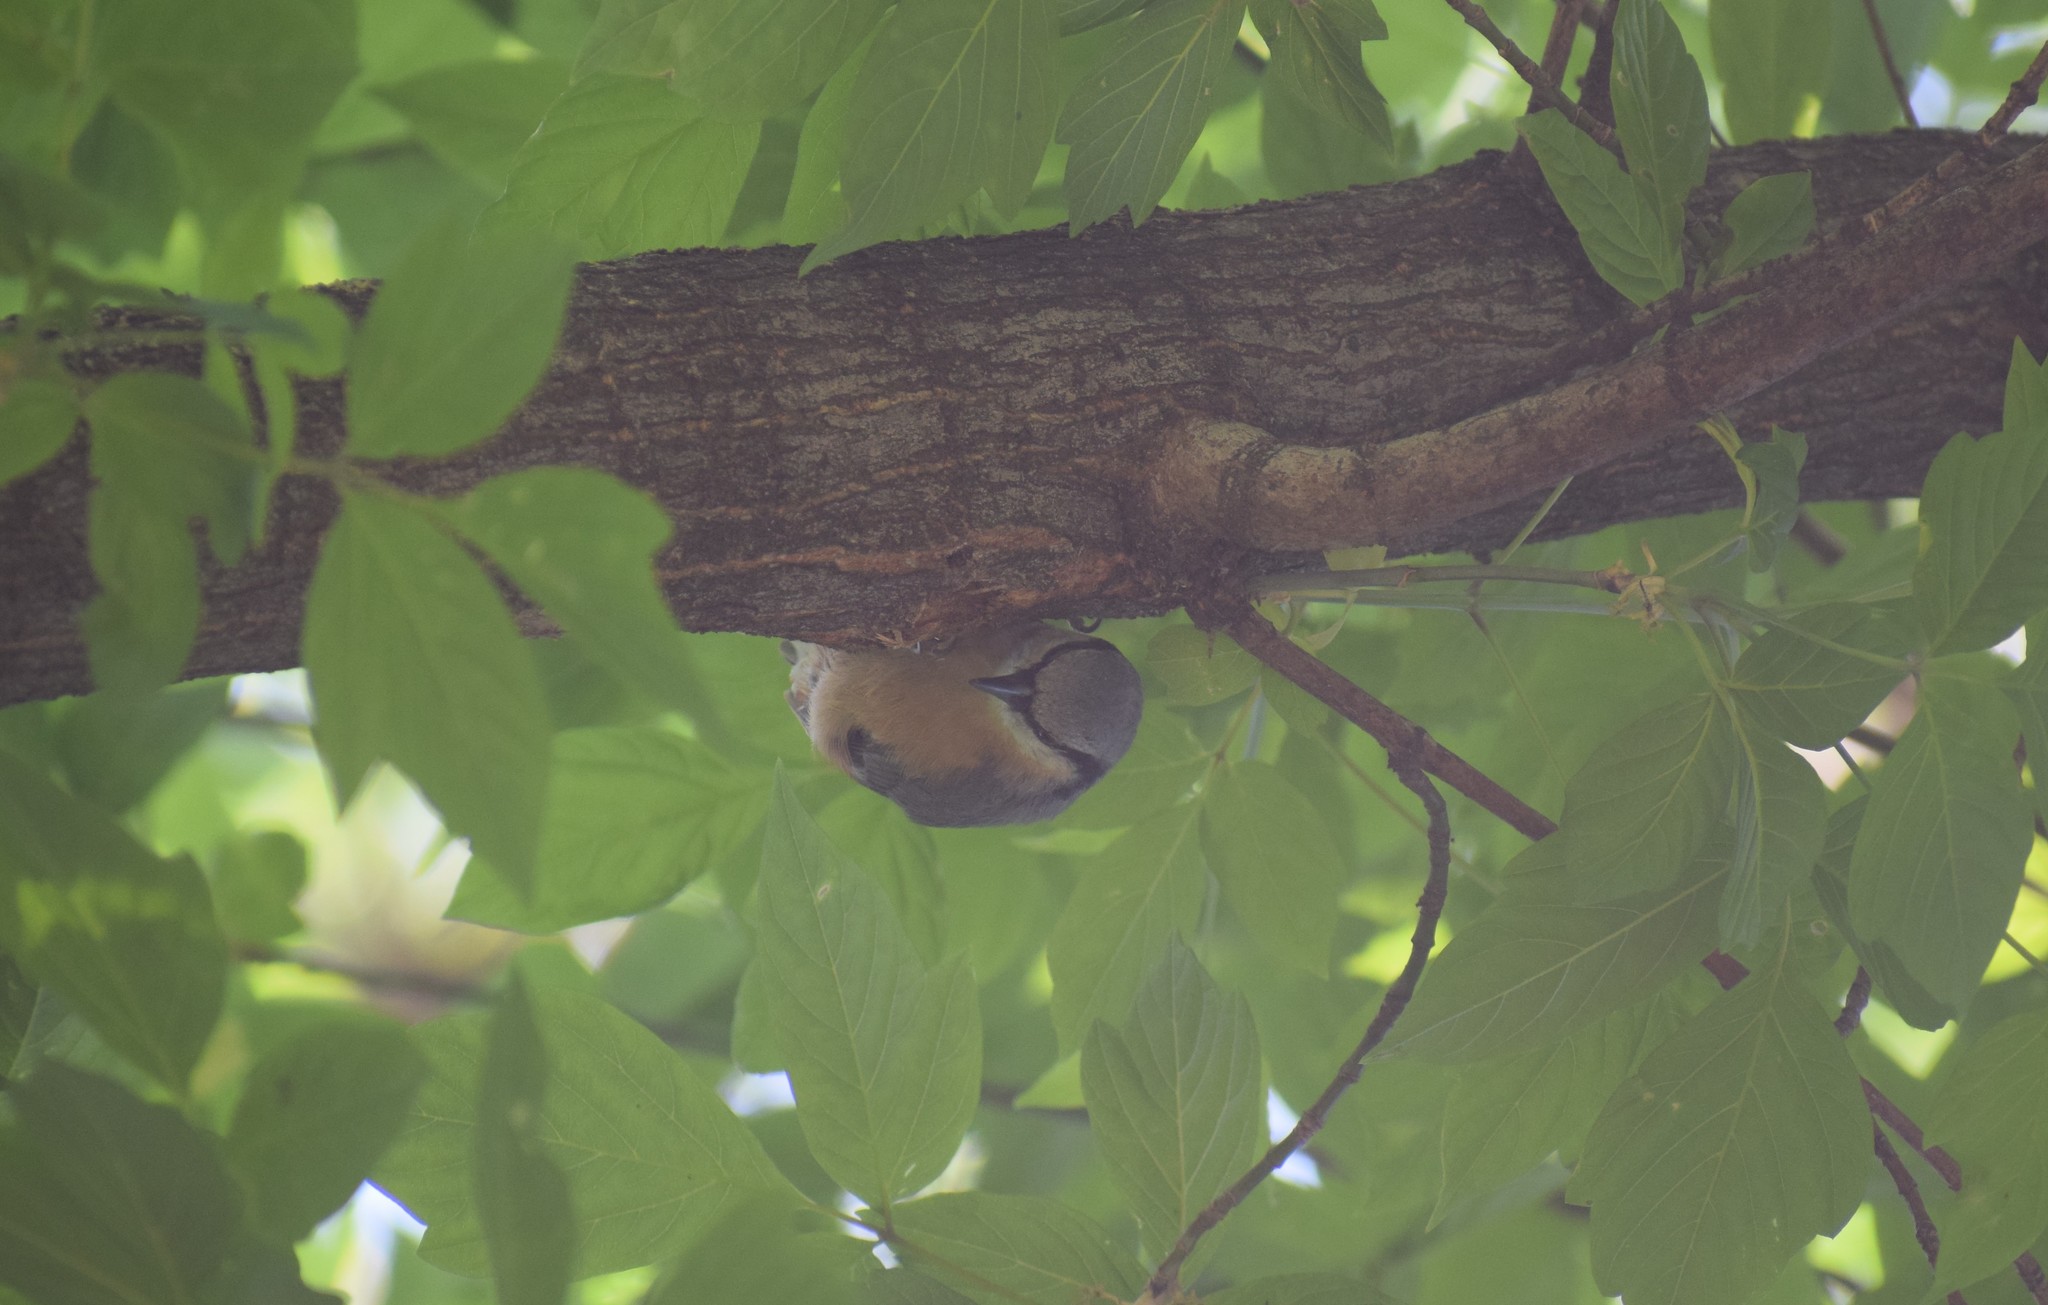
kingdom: Animalia
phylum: Chordata
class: Aves
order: Passeriformes
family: Sittidae
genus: Sitta
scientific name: Sitta europaea
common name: Eurasian nuthatch
